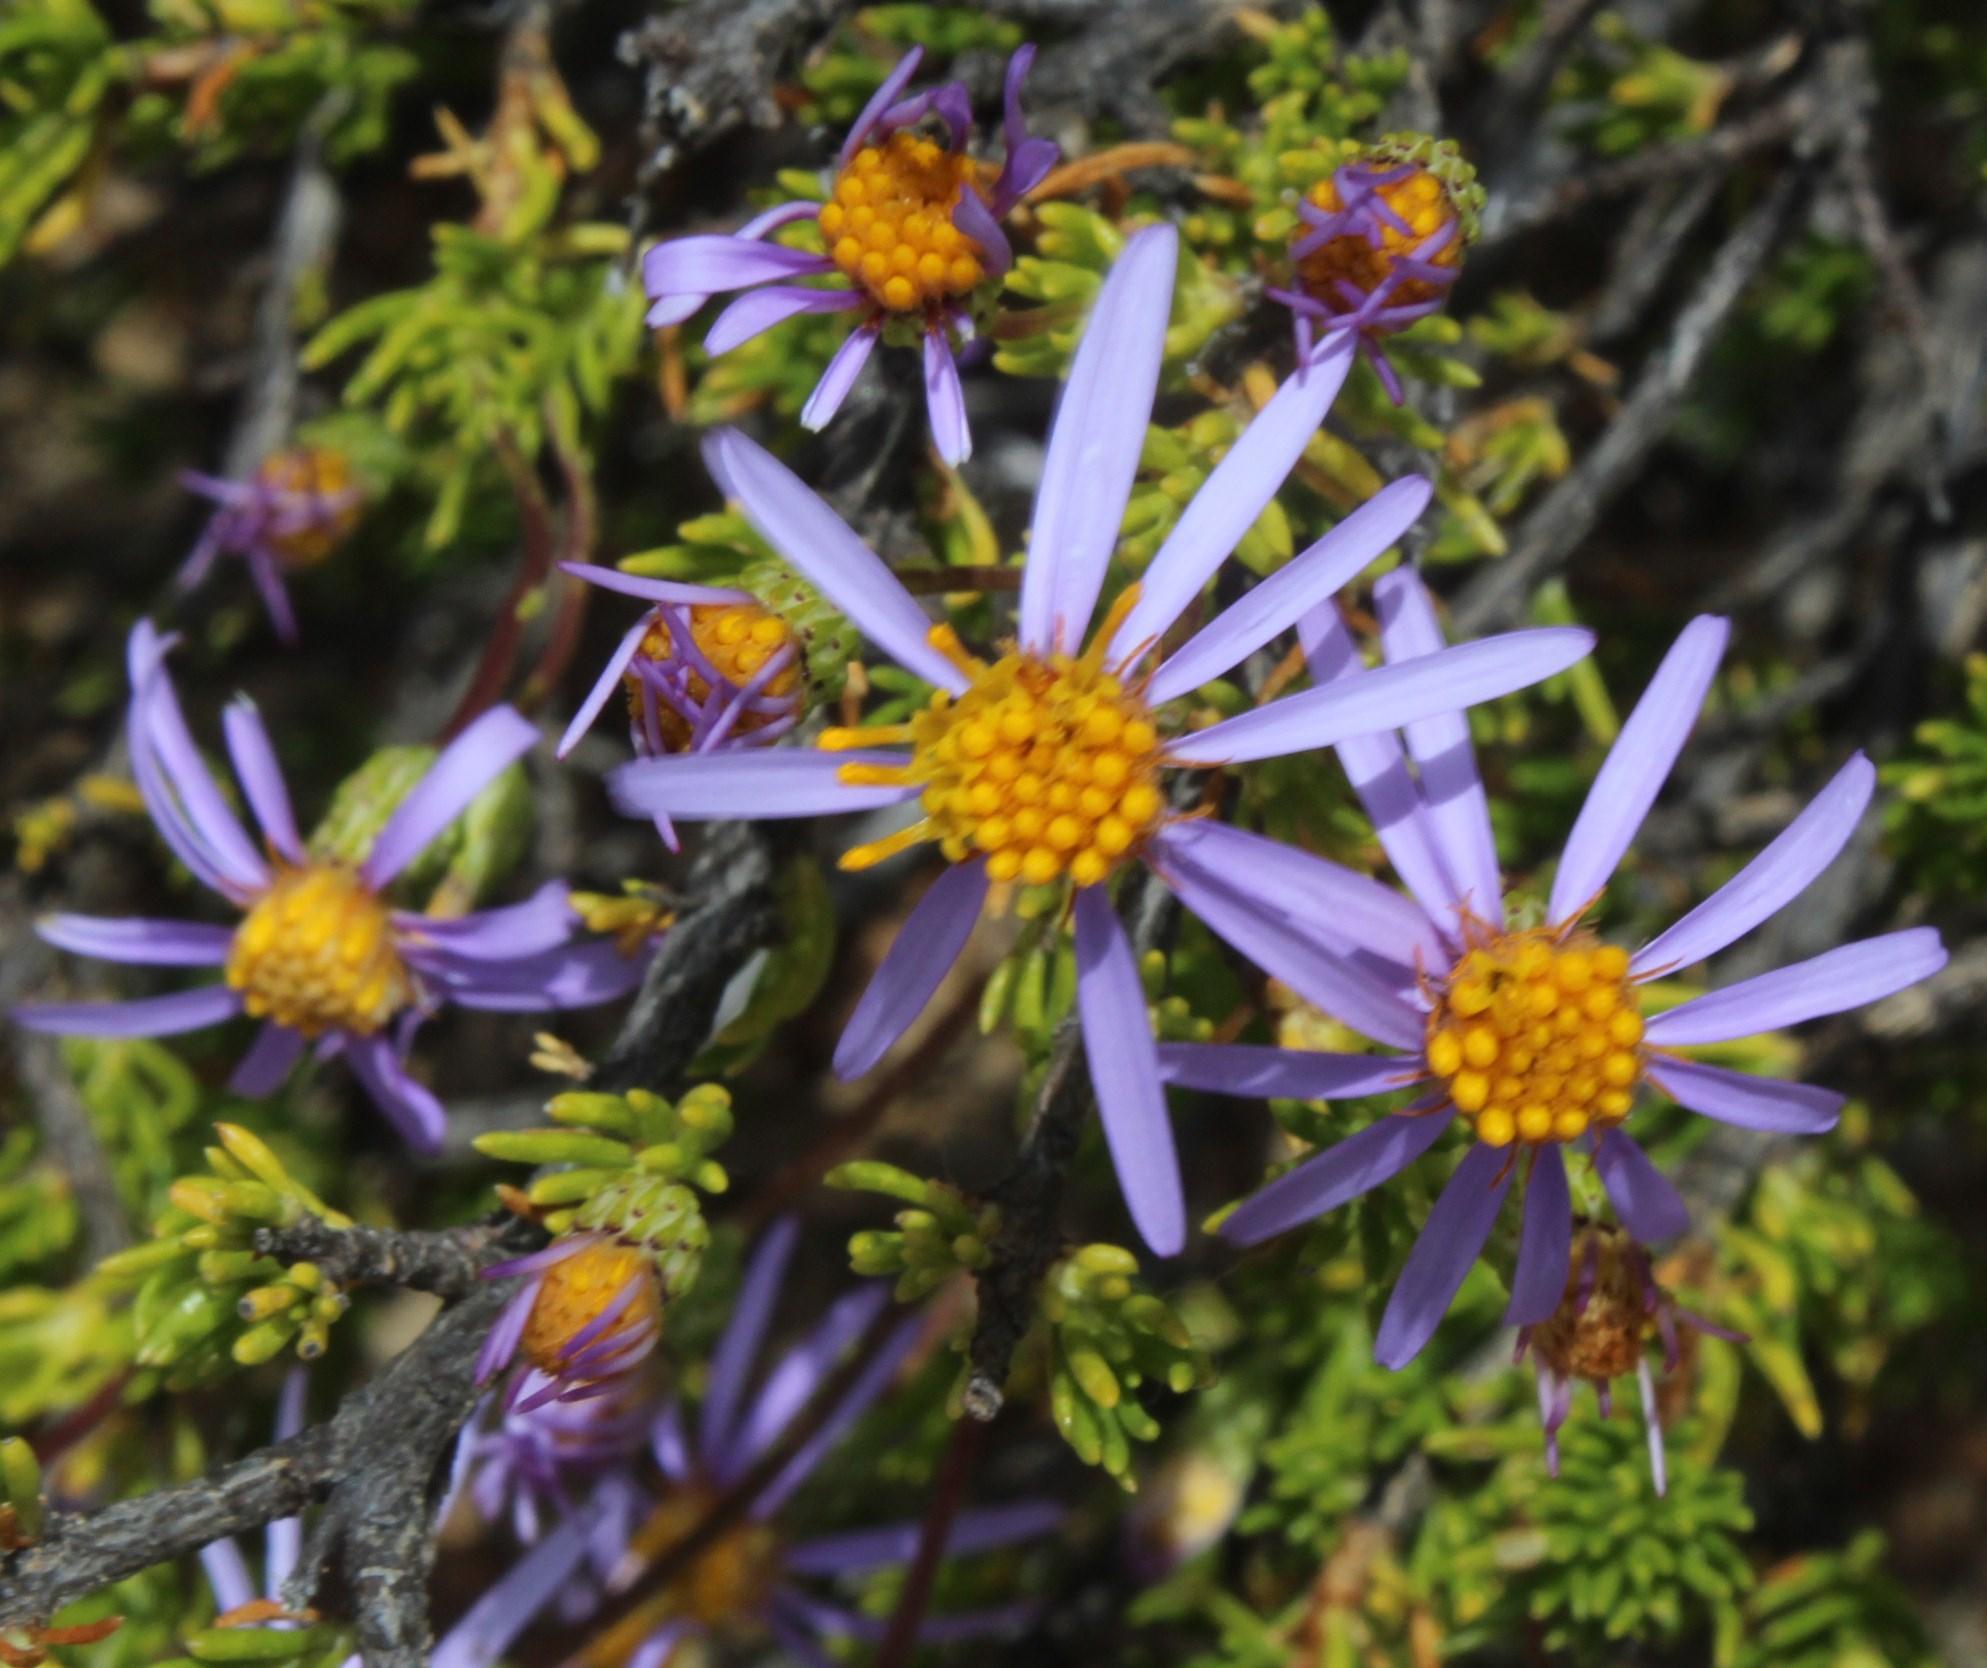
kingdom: Plantae
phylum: Tracheophyta
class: Magnoliopsida
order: Asterales
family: Asteraceae
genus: Felicia
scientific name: Felicia filifolia
